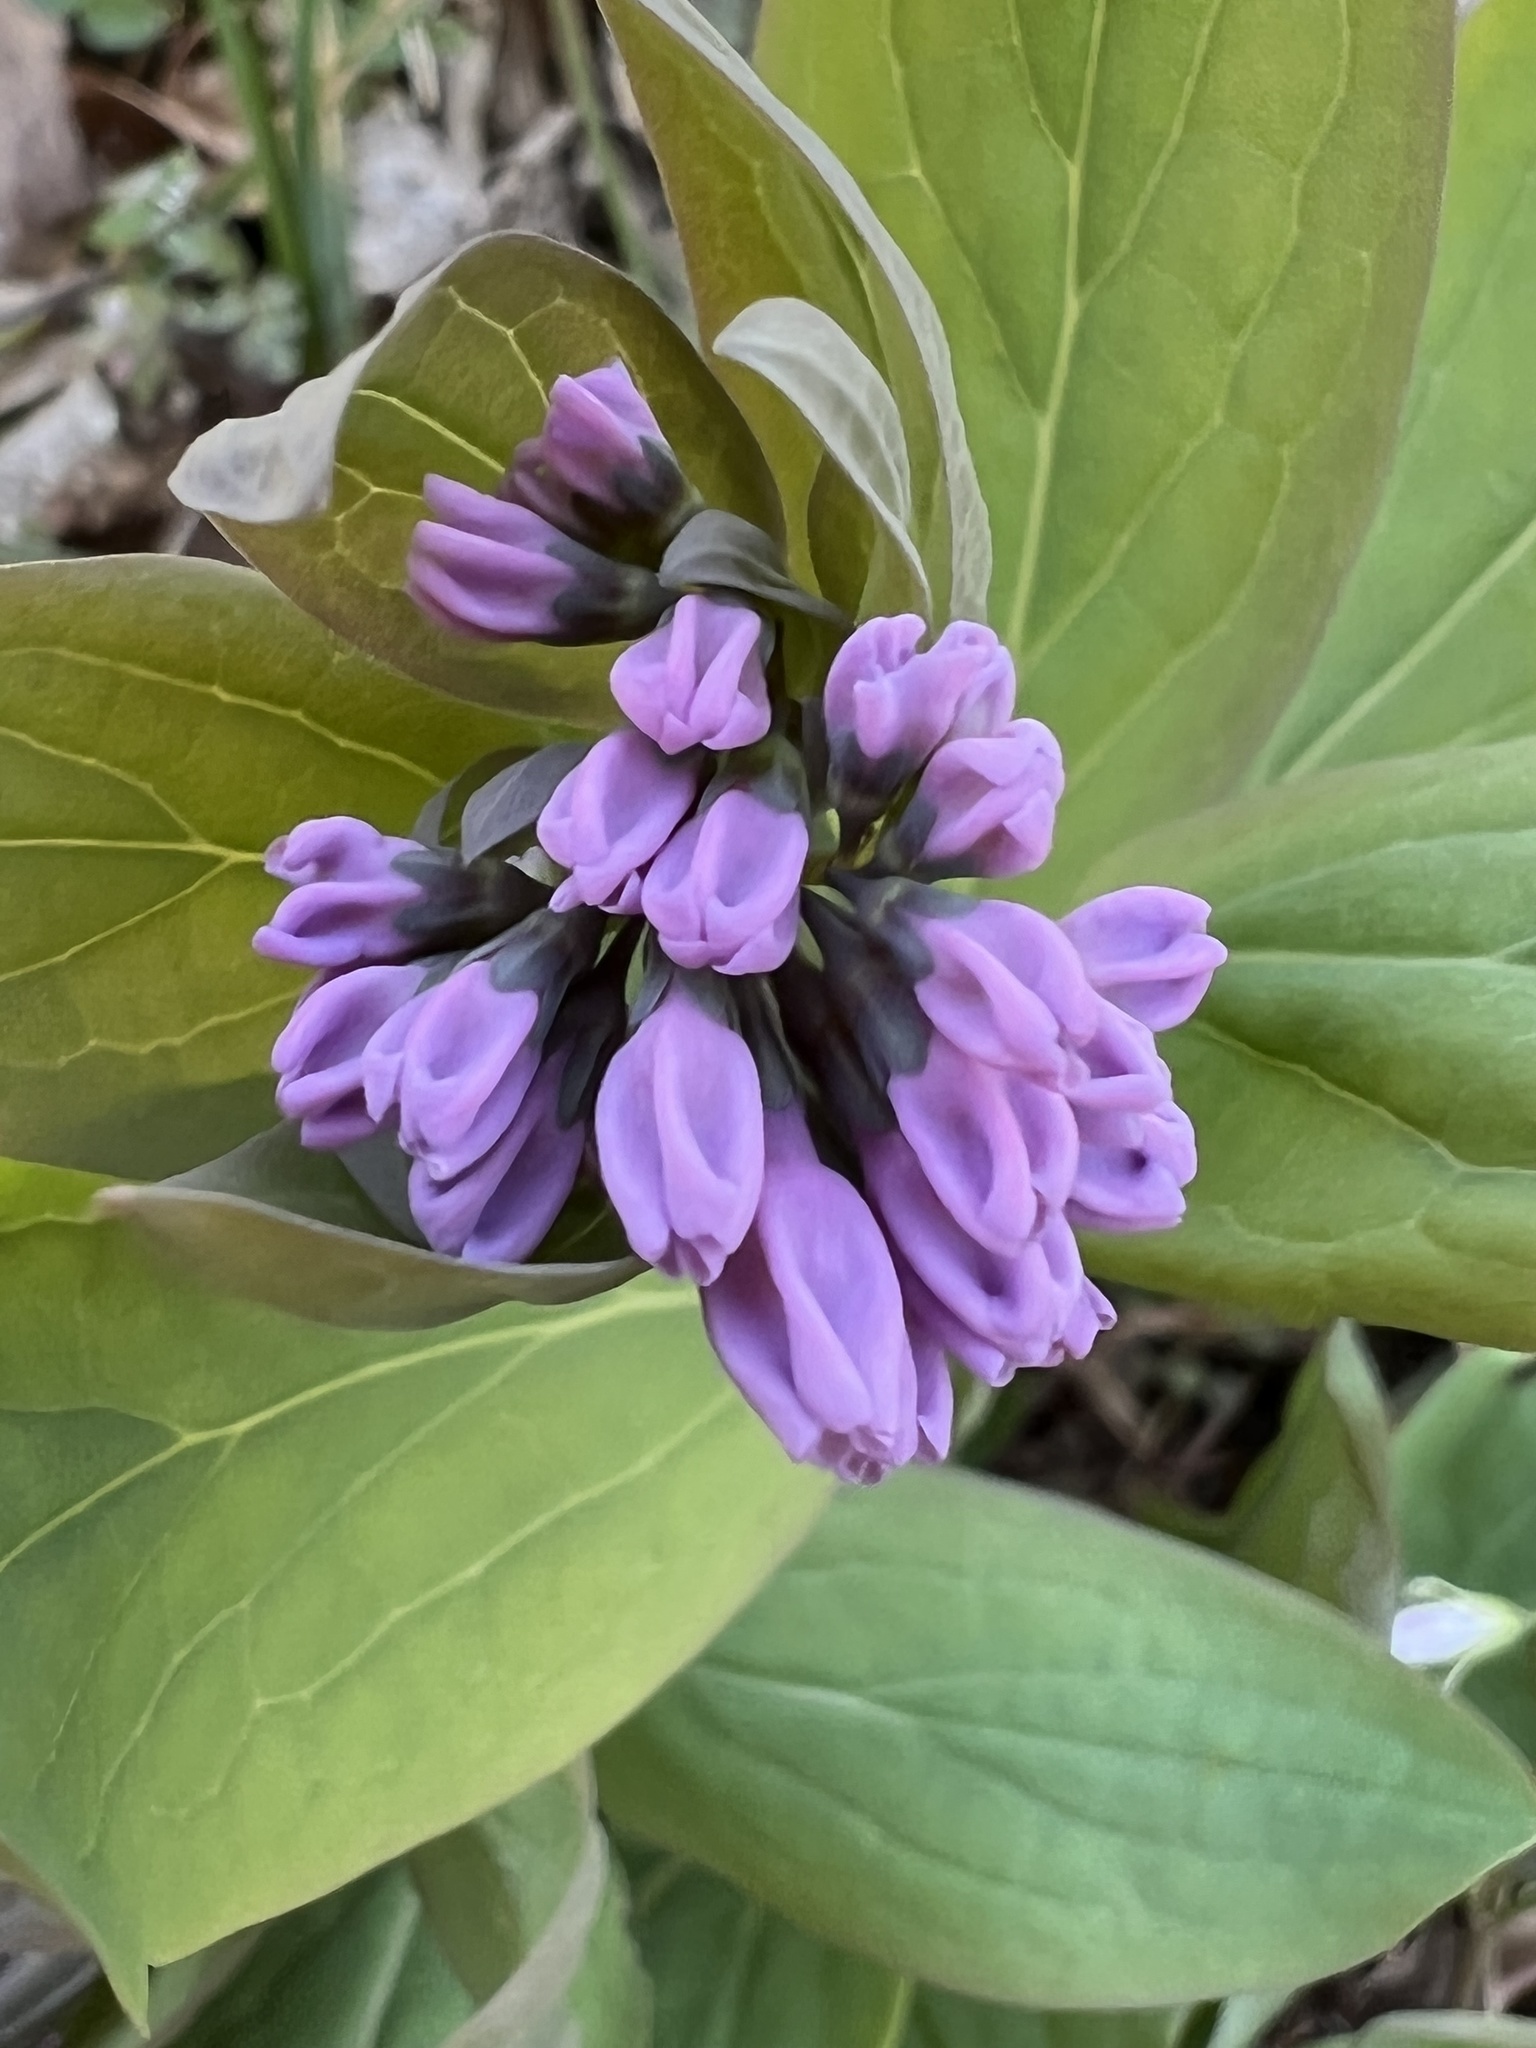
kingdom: Plantae
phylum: Tracheophyta
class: Magnoliopsida
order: Boraginales
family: Boraginaceae
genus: Mertensia
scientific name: Mertensia virginica
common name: Virginia bluebells
